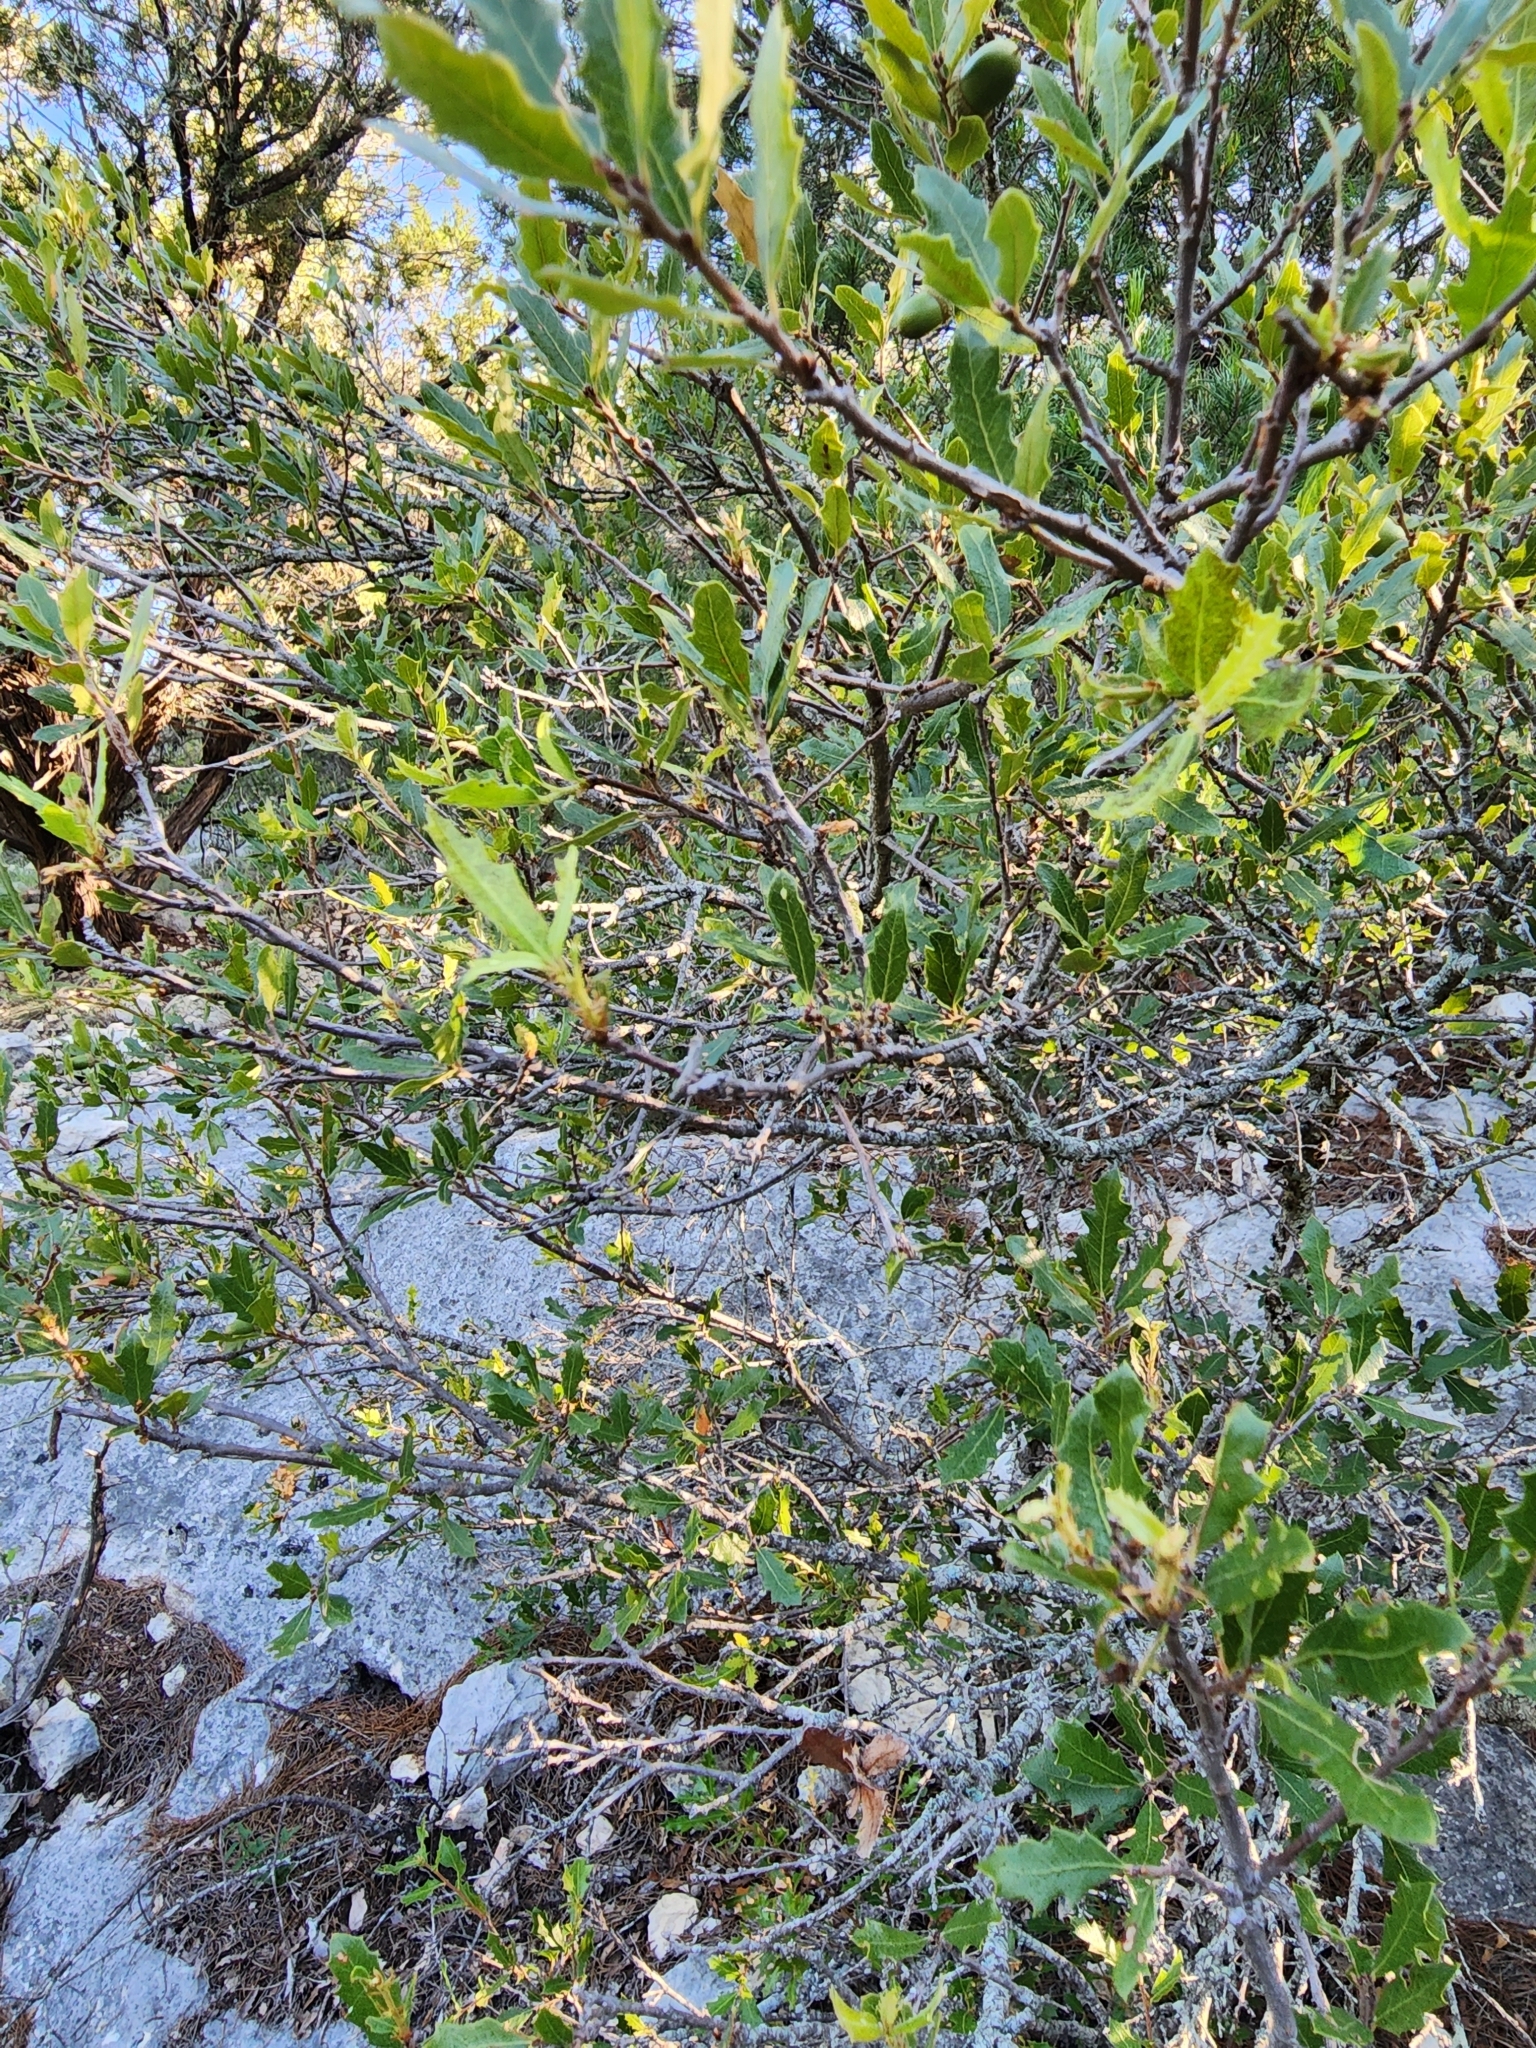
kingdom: Plantae
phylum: Tracheophyta
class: Magnoliopsida
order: Fagales
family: Fagaceae
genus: Quercus
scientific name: Quercus vaseyana
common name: Sandpaper oak
